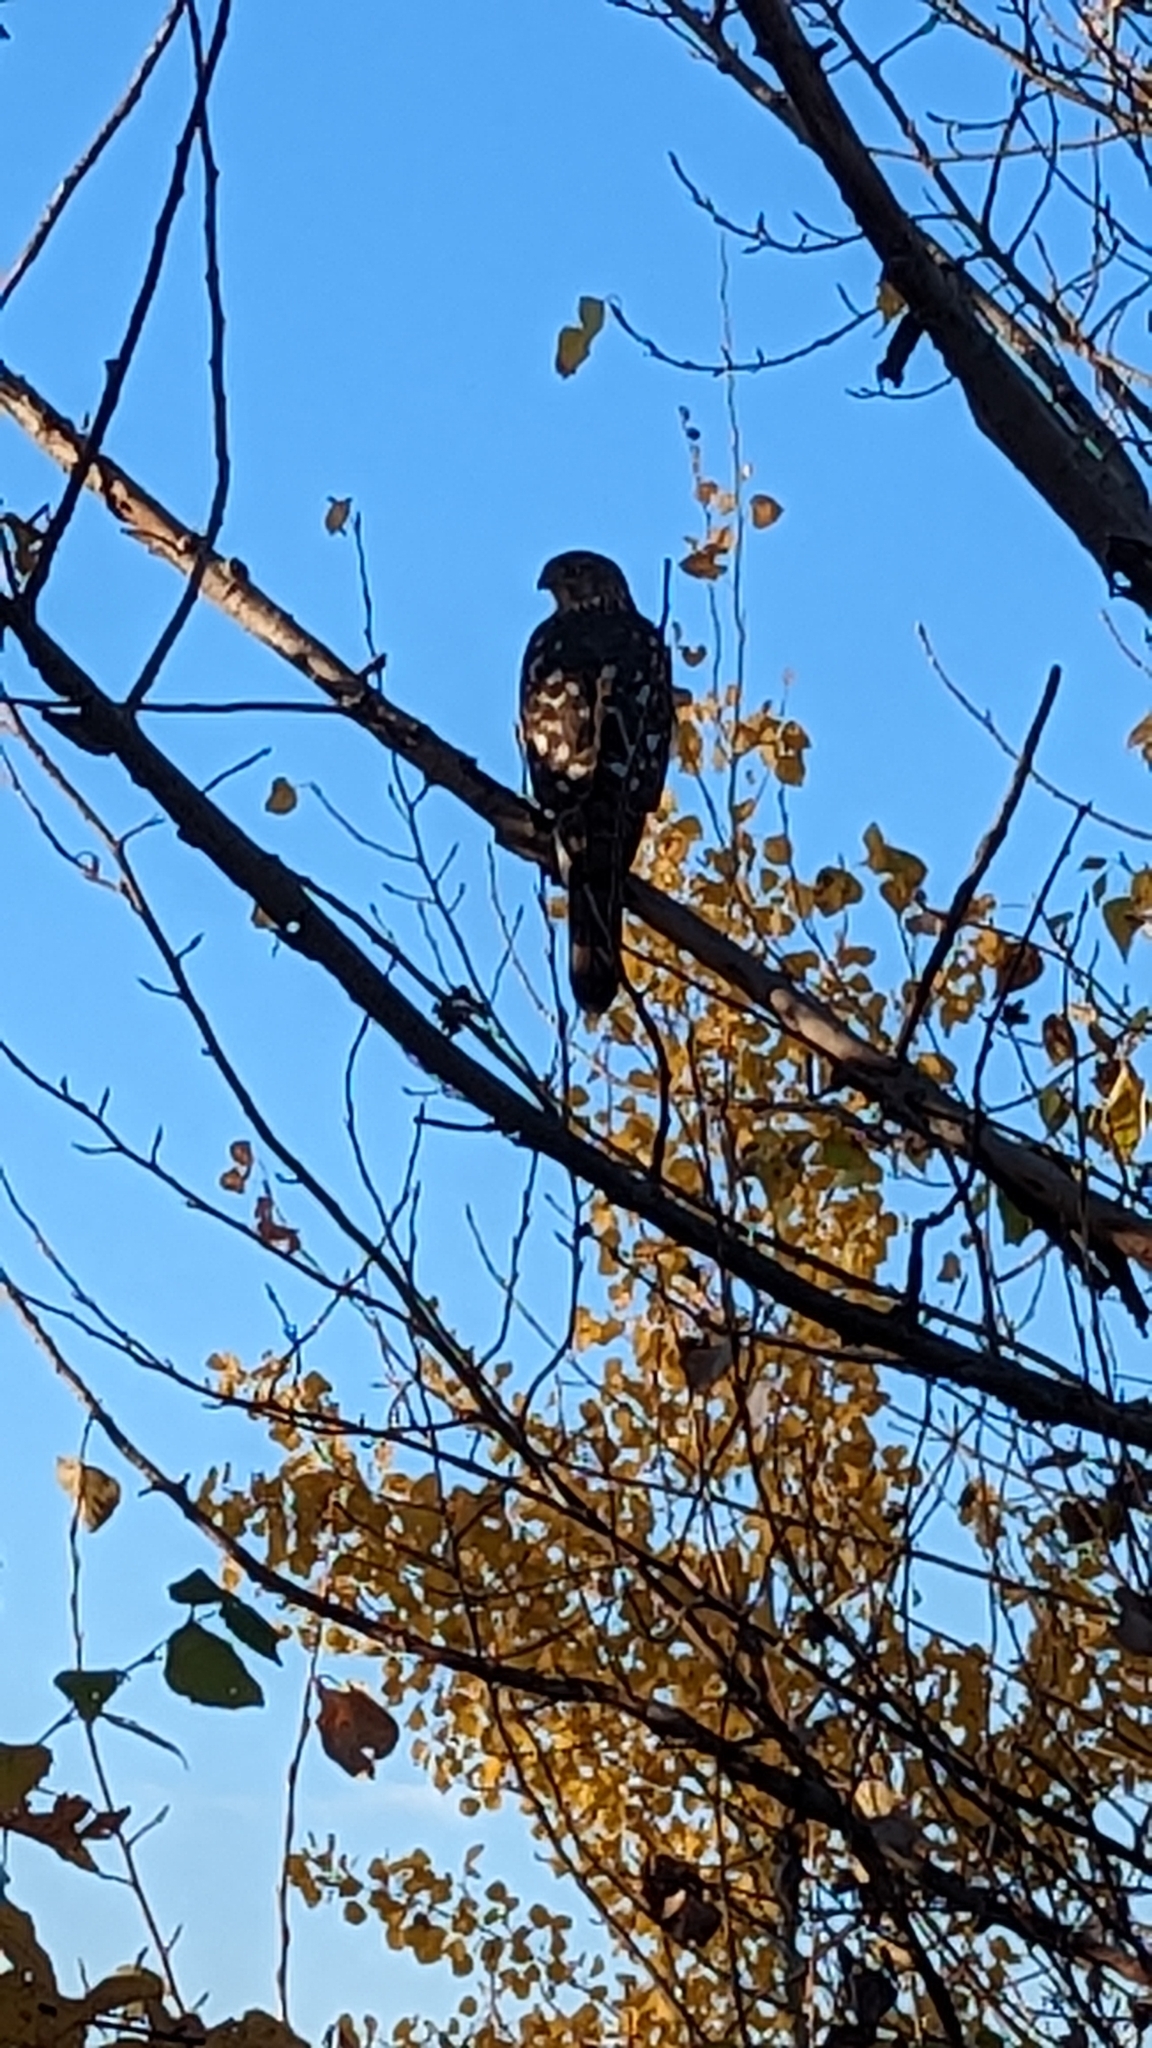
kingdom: Animalia
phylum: Chordata
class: Aves
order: Accipitriformes
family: Accipitridae
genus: Accipiter
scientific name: Accipiter cooperii
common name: Cooper's hawk
